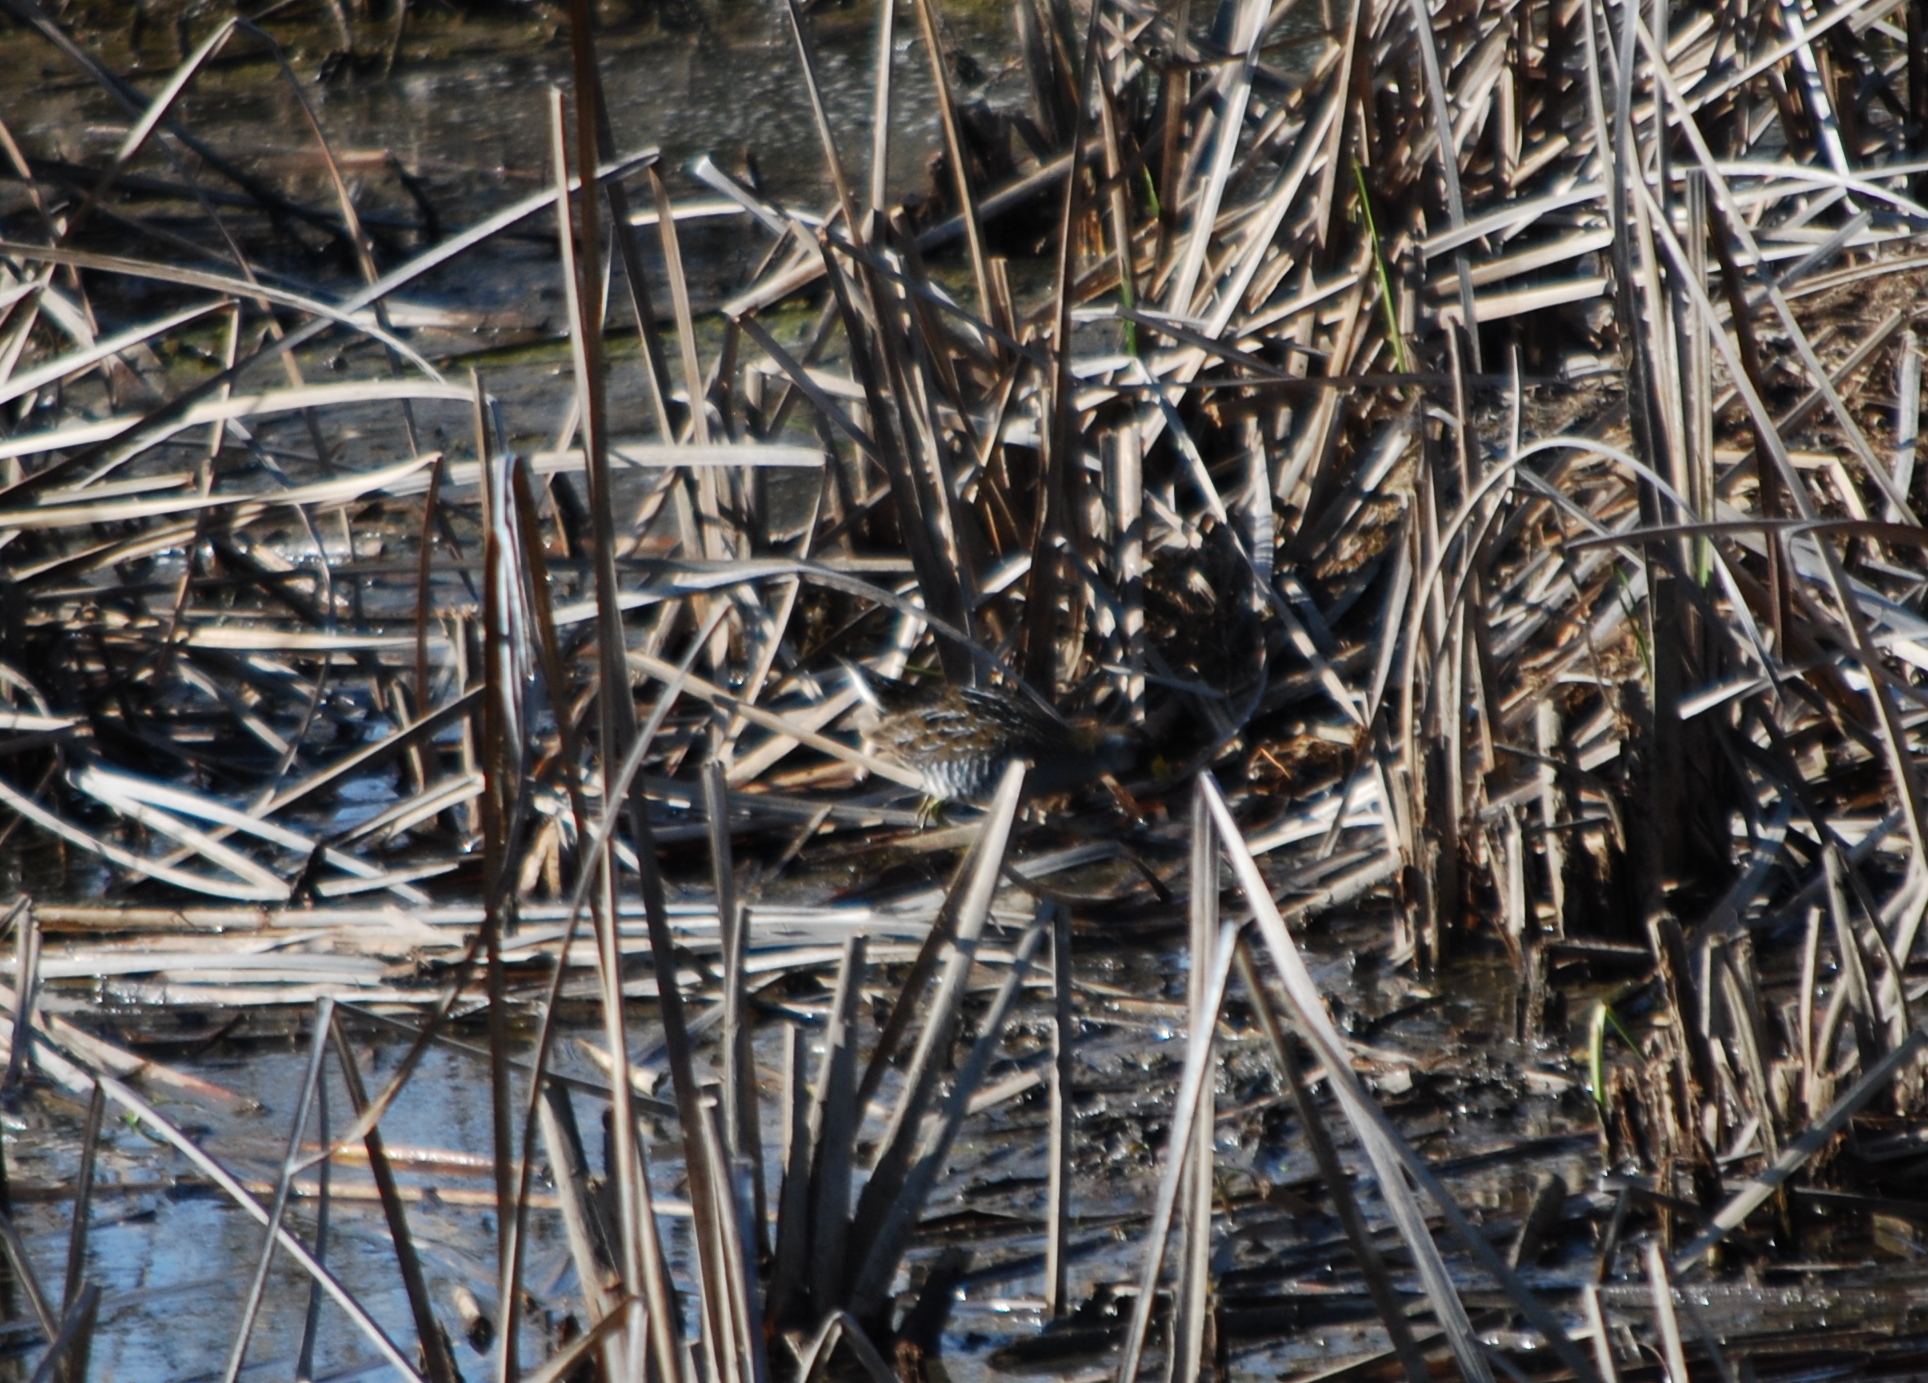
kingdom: Animalia
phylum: Chordata
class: Aves
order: Gruiformes
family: Rallidae
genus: Porzana
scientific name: Porzana carolina
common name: Sora
